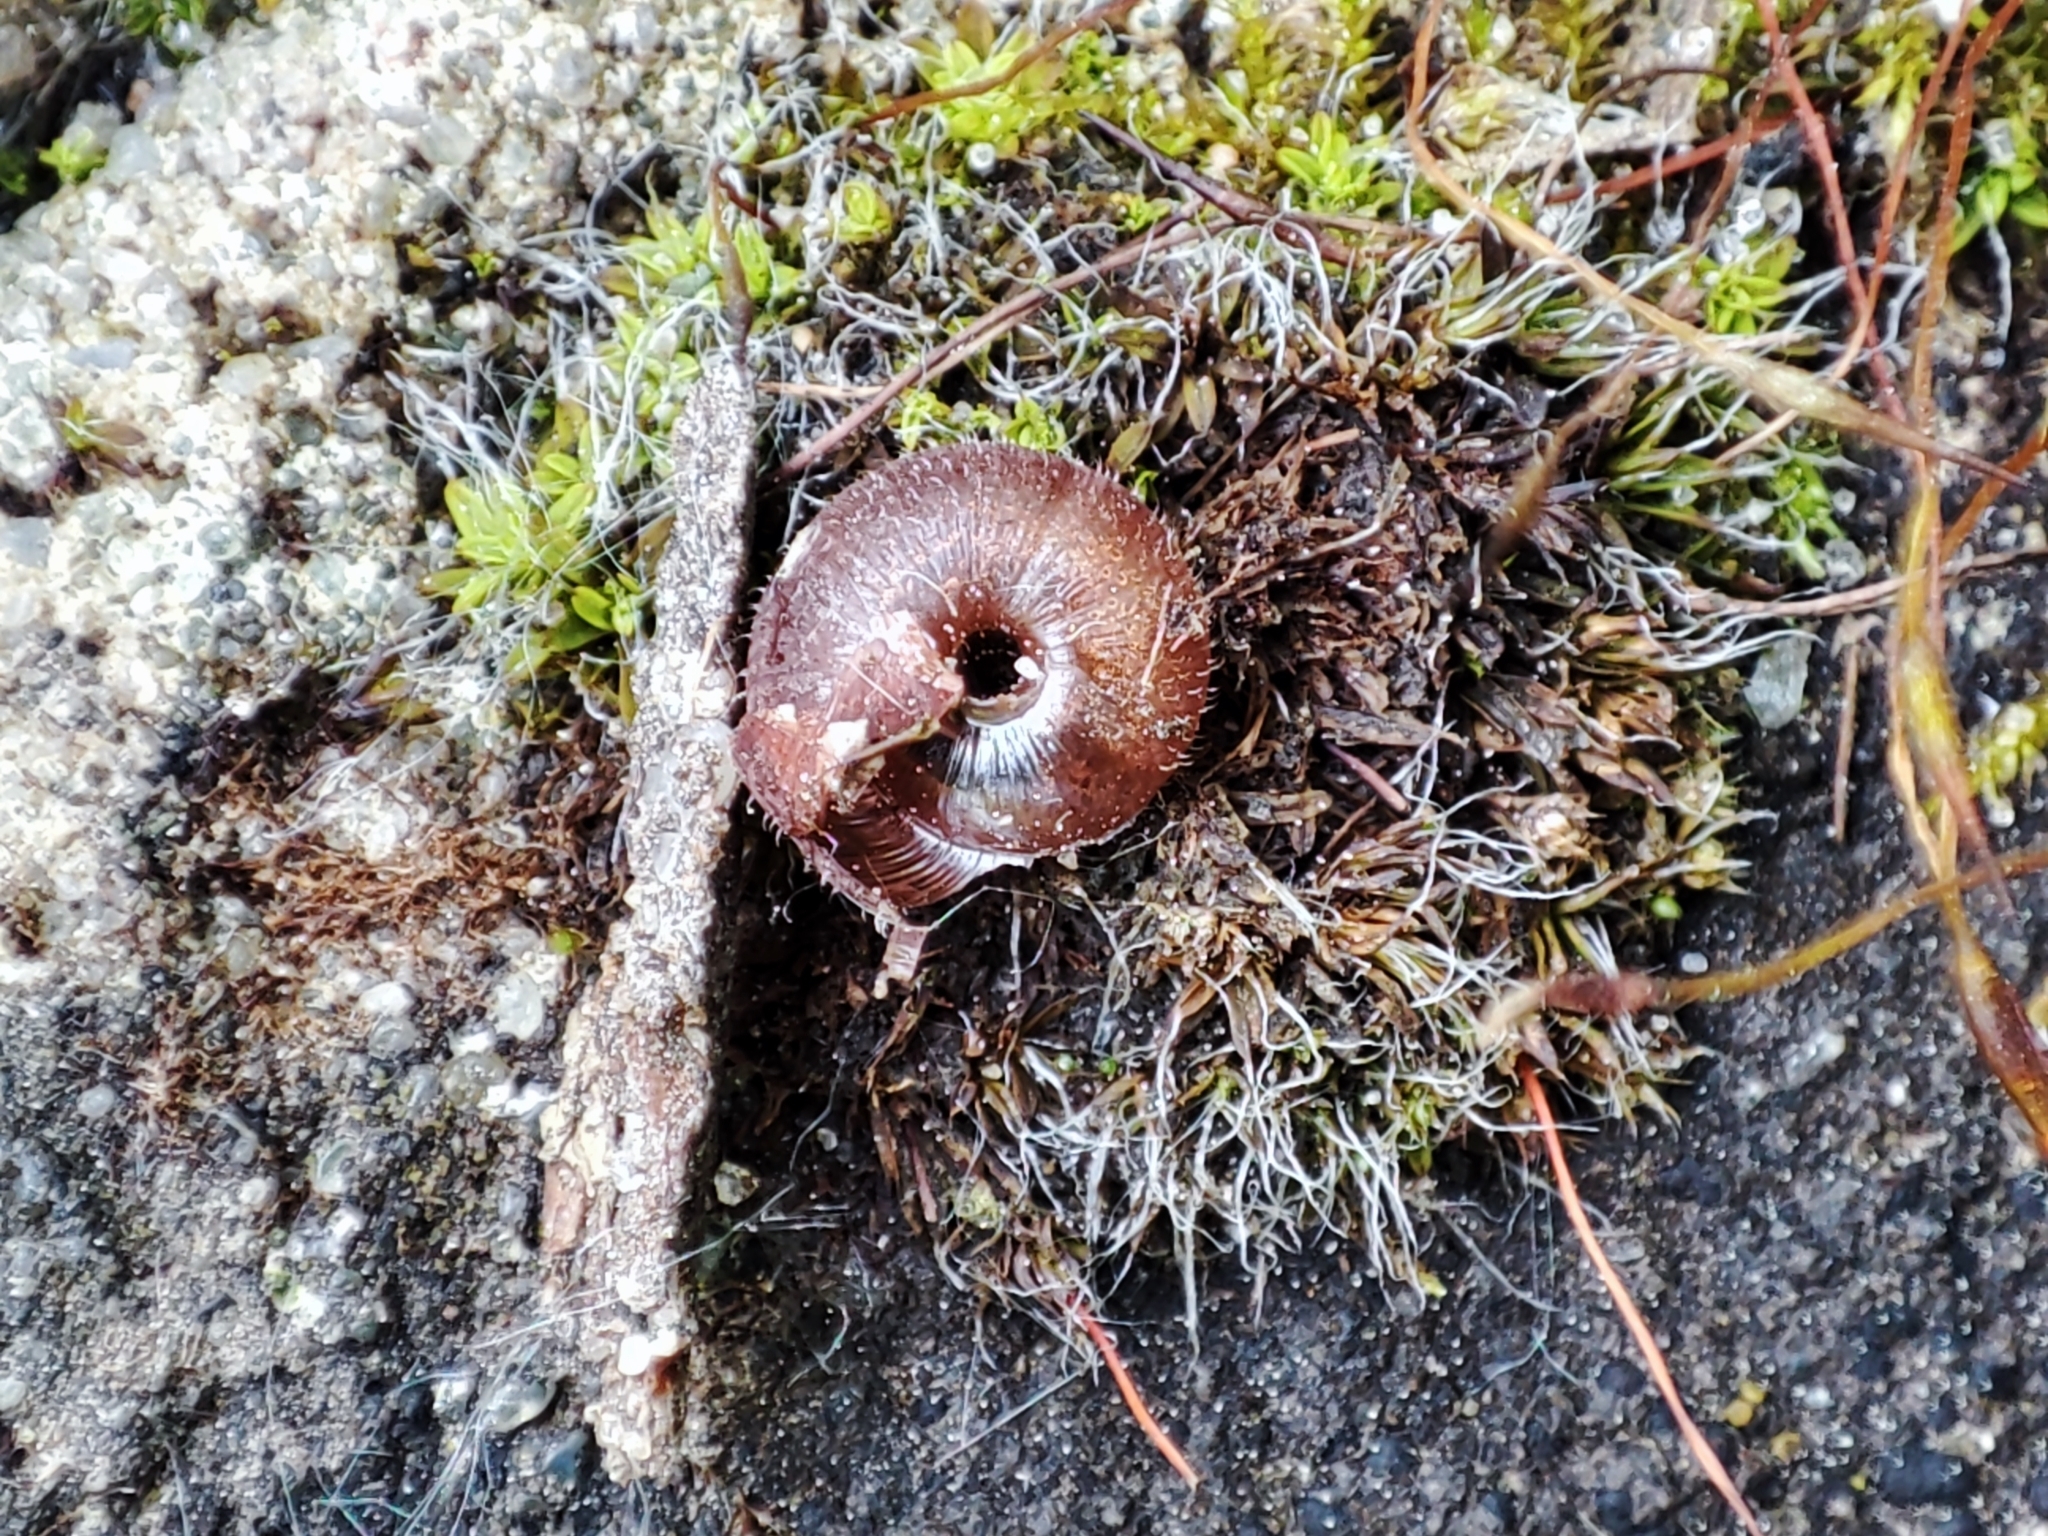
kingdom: Animalia
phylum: Mollusca
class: Gastropoda
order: Stylommatophora
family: Hygromiidae
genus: Trochulus
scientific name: Trochulus hispidus
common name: Hairy snail
